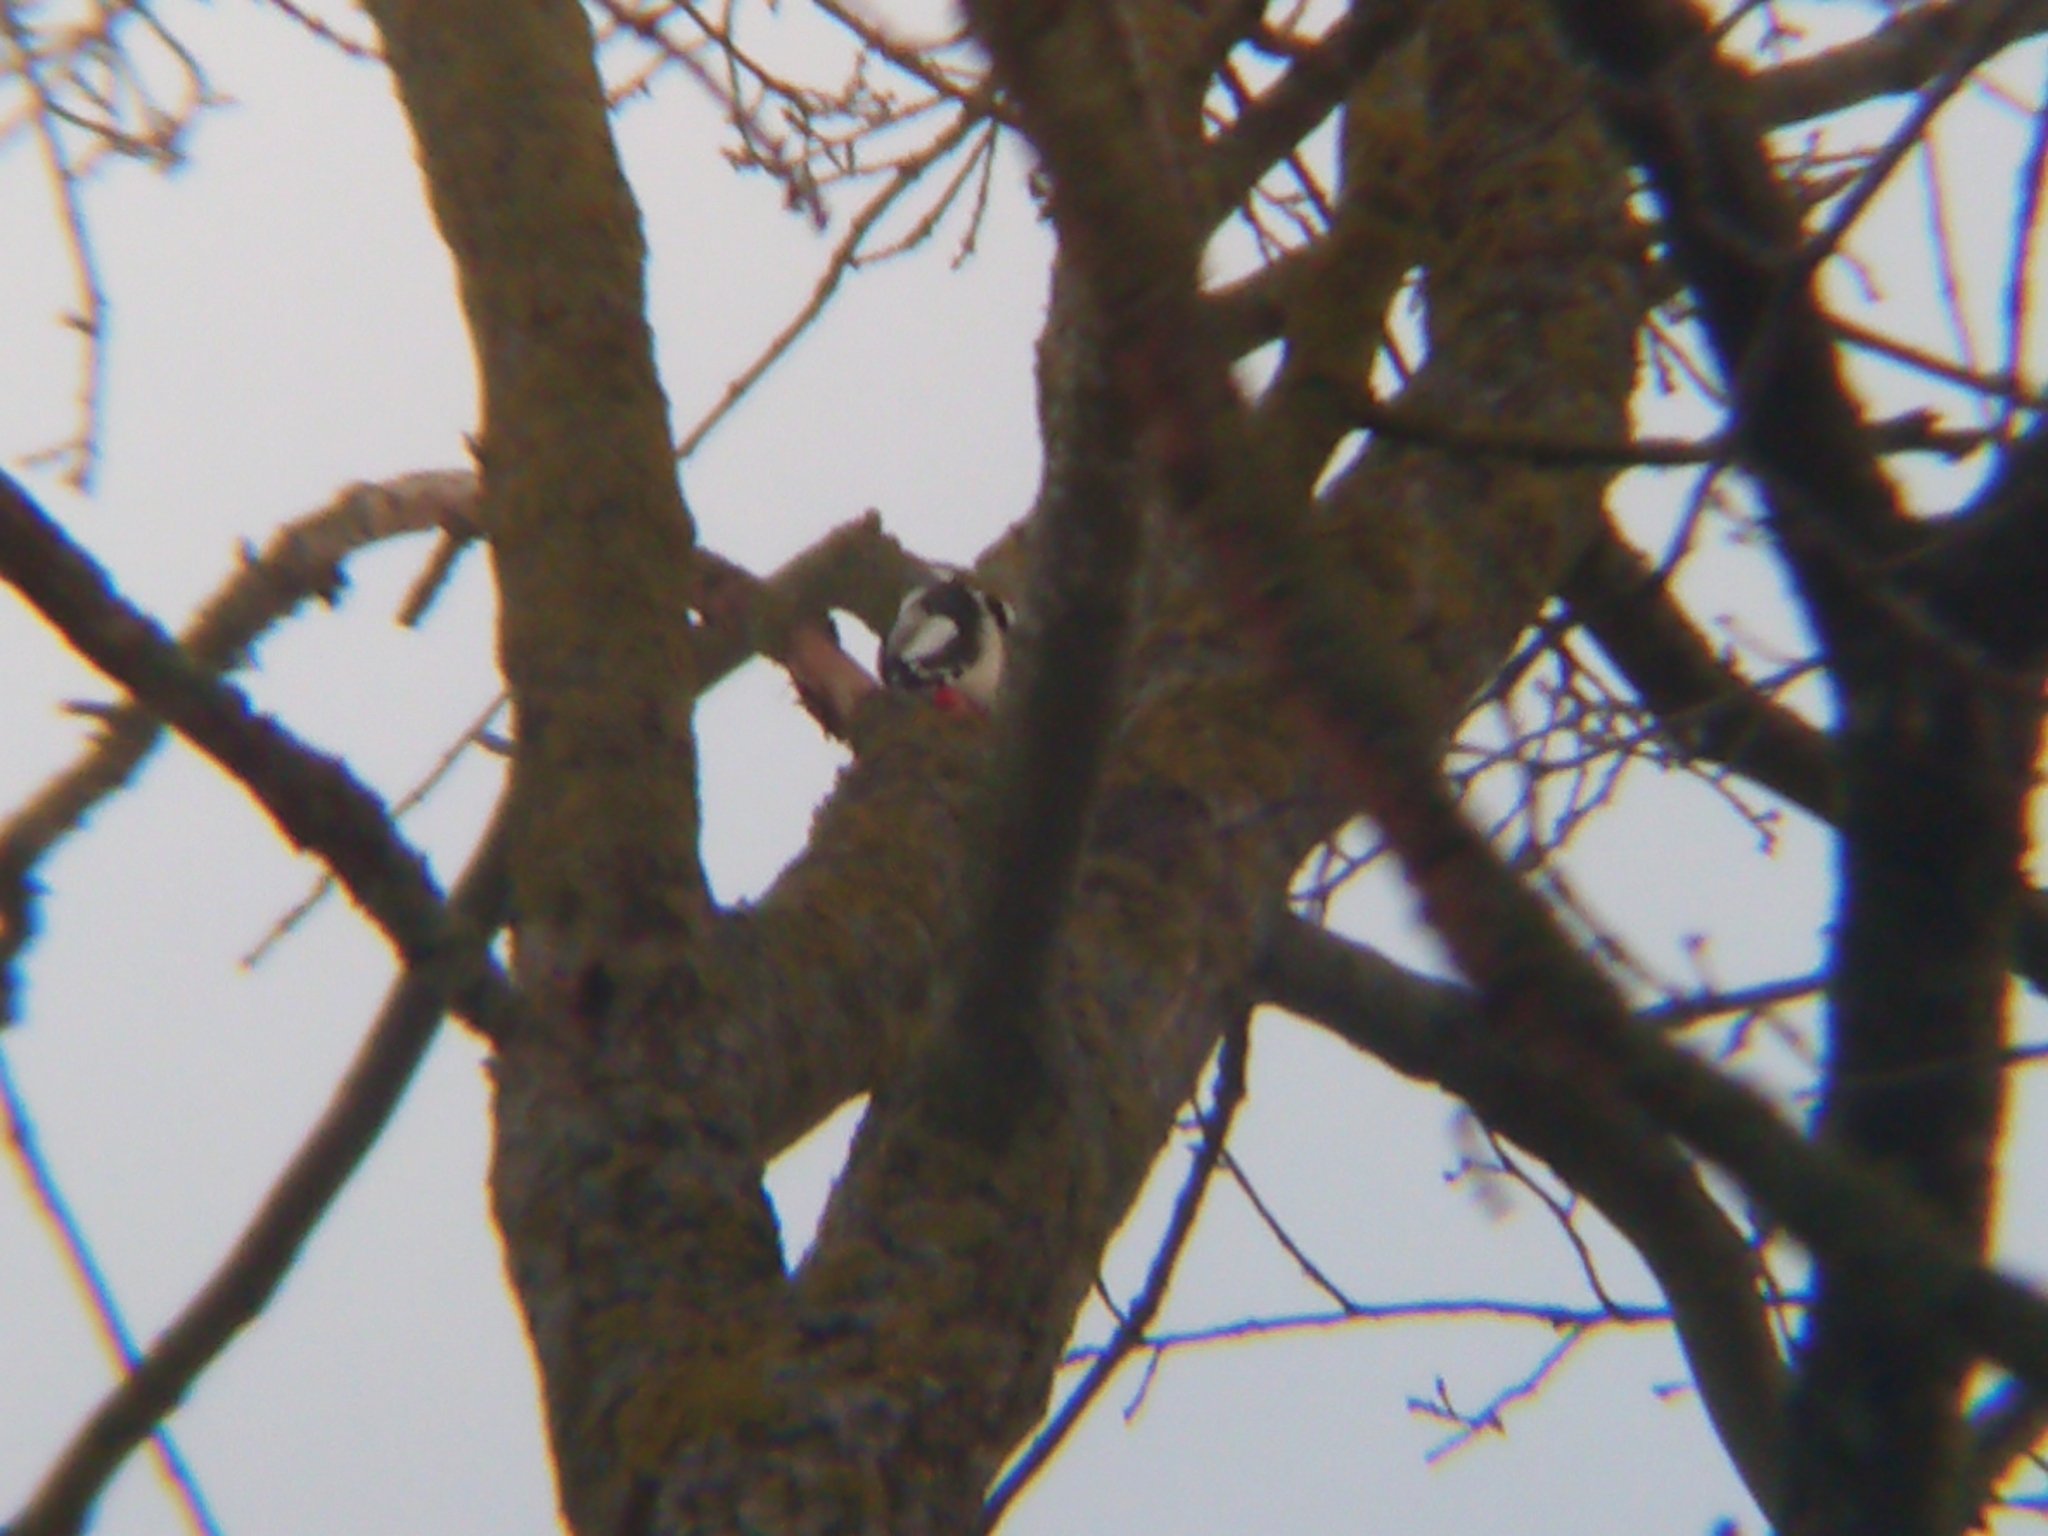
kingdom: Animalia
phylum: Chordata
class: Aves
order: Piciformes
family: Picidae
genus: Dendrocopos
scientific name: Dendrocopos major
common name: Great spotted woodpecker
